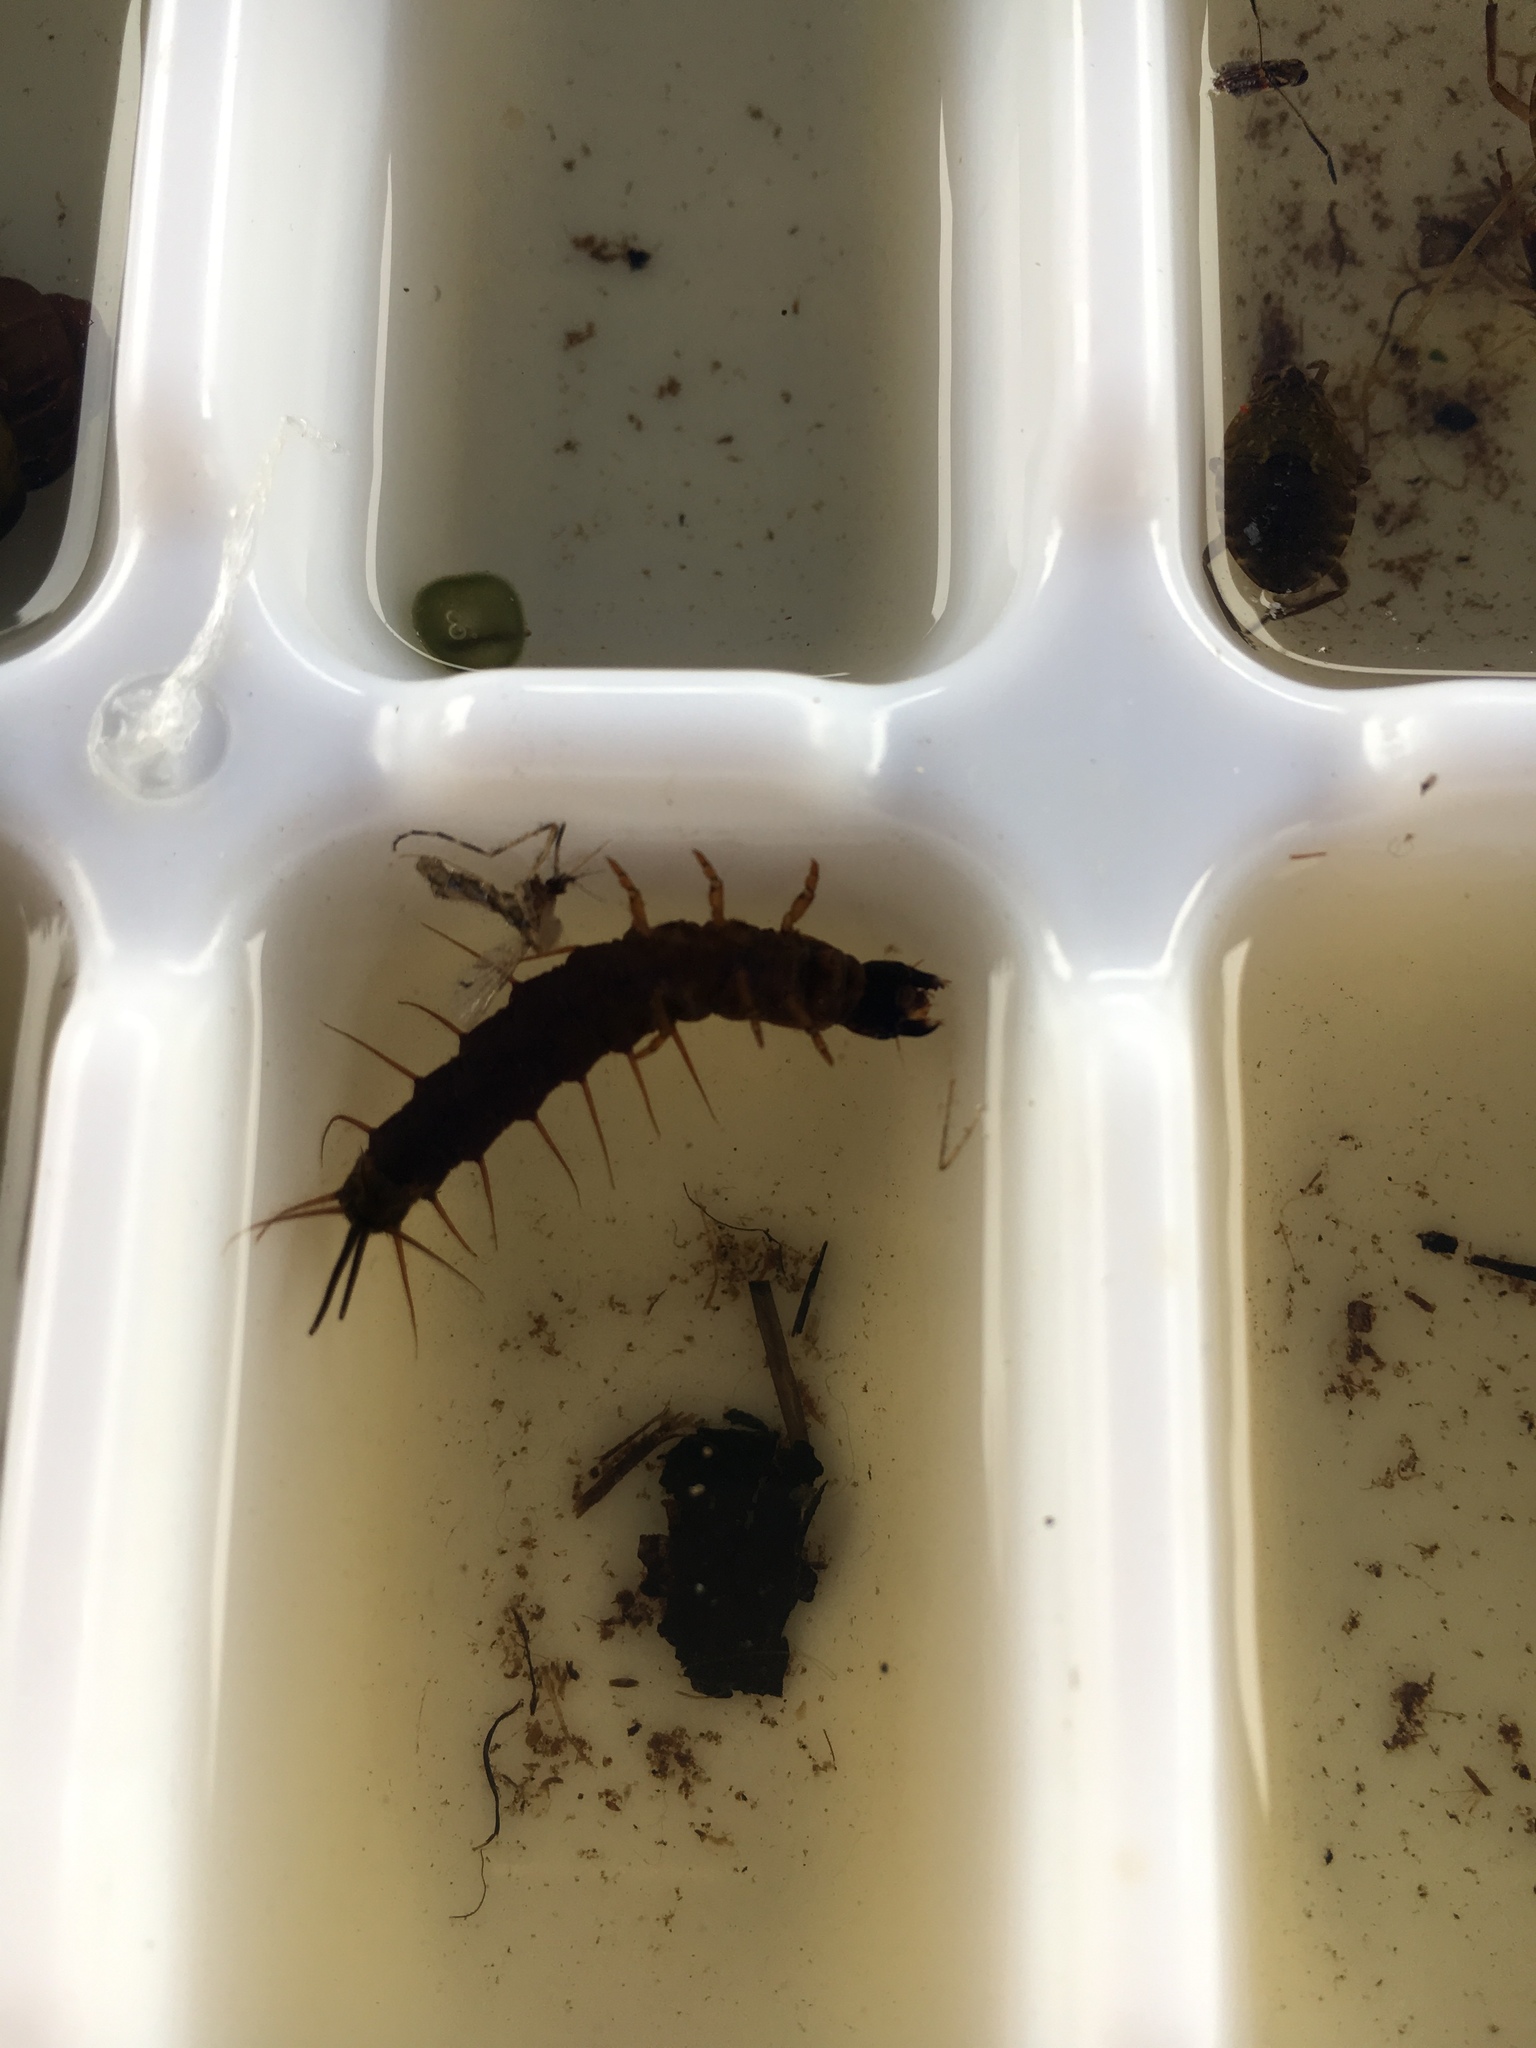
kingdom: Animalia
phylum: Arthropoda
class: Insecta
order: Megaloptera
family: Corydalidae
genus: Chauliodes
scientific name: Chauliodes
